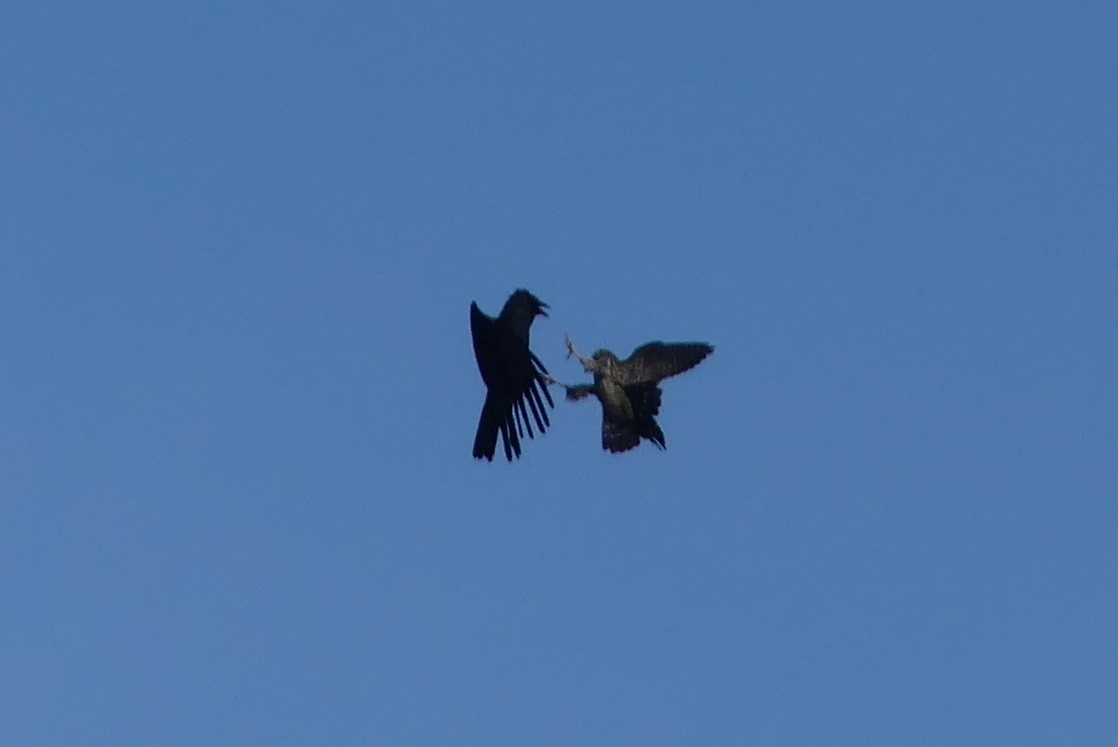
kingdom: Animalia
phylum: Chordata
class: Aves
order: Falconiformes
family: Falconidae
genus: Falco
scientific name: Falco columbarius
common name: Merlin
